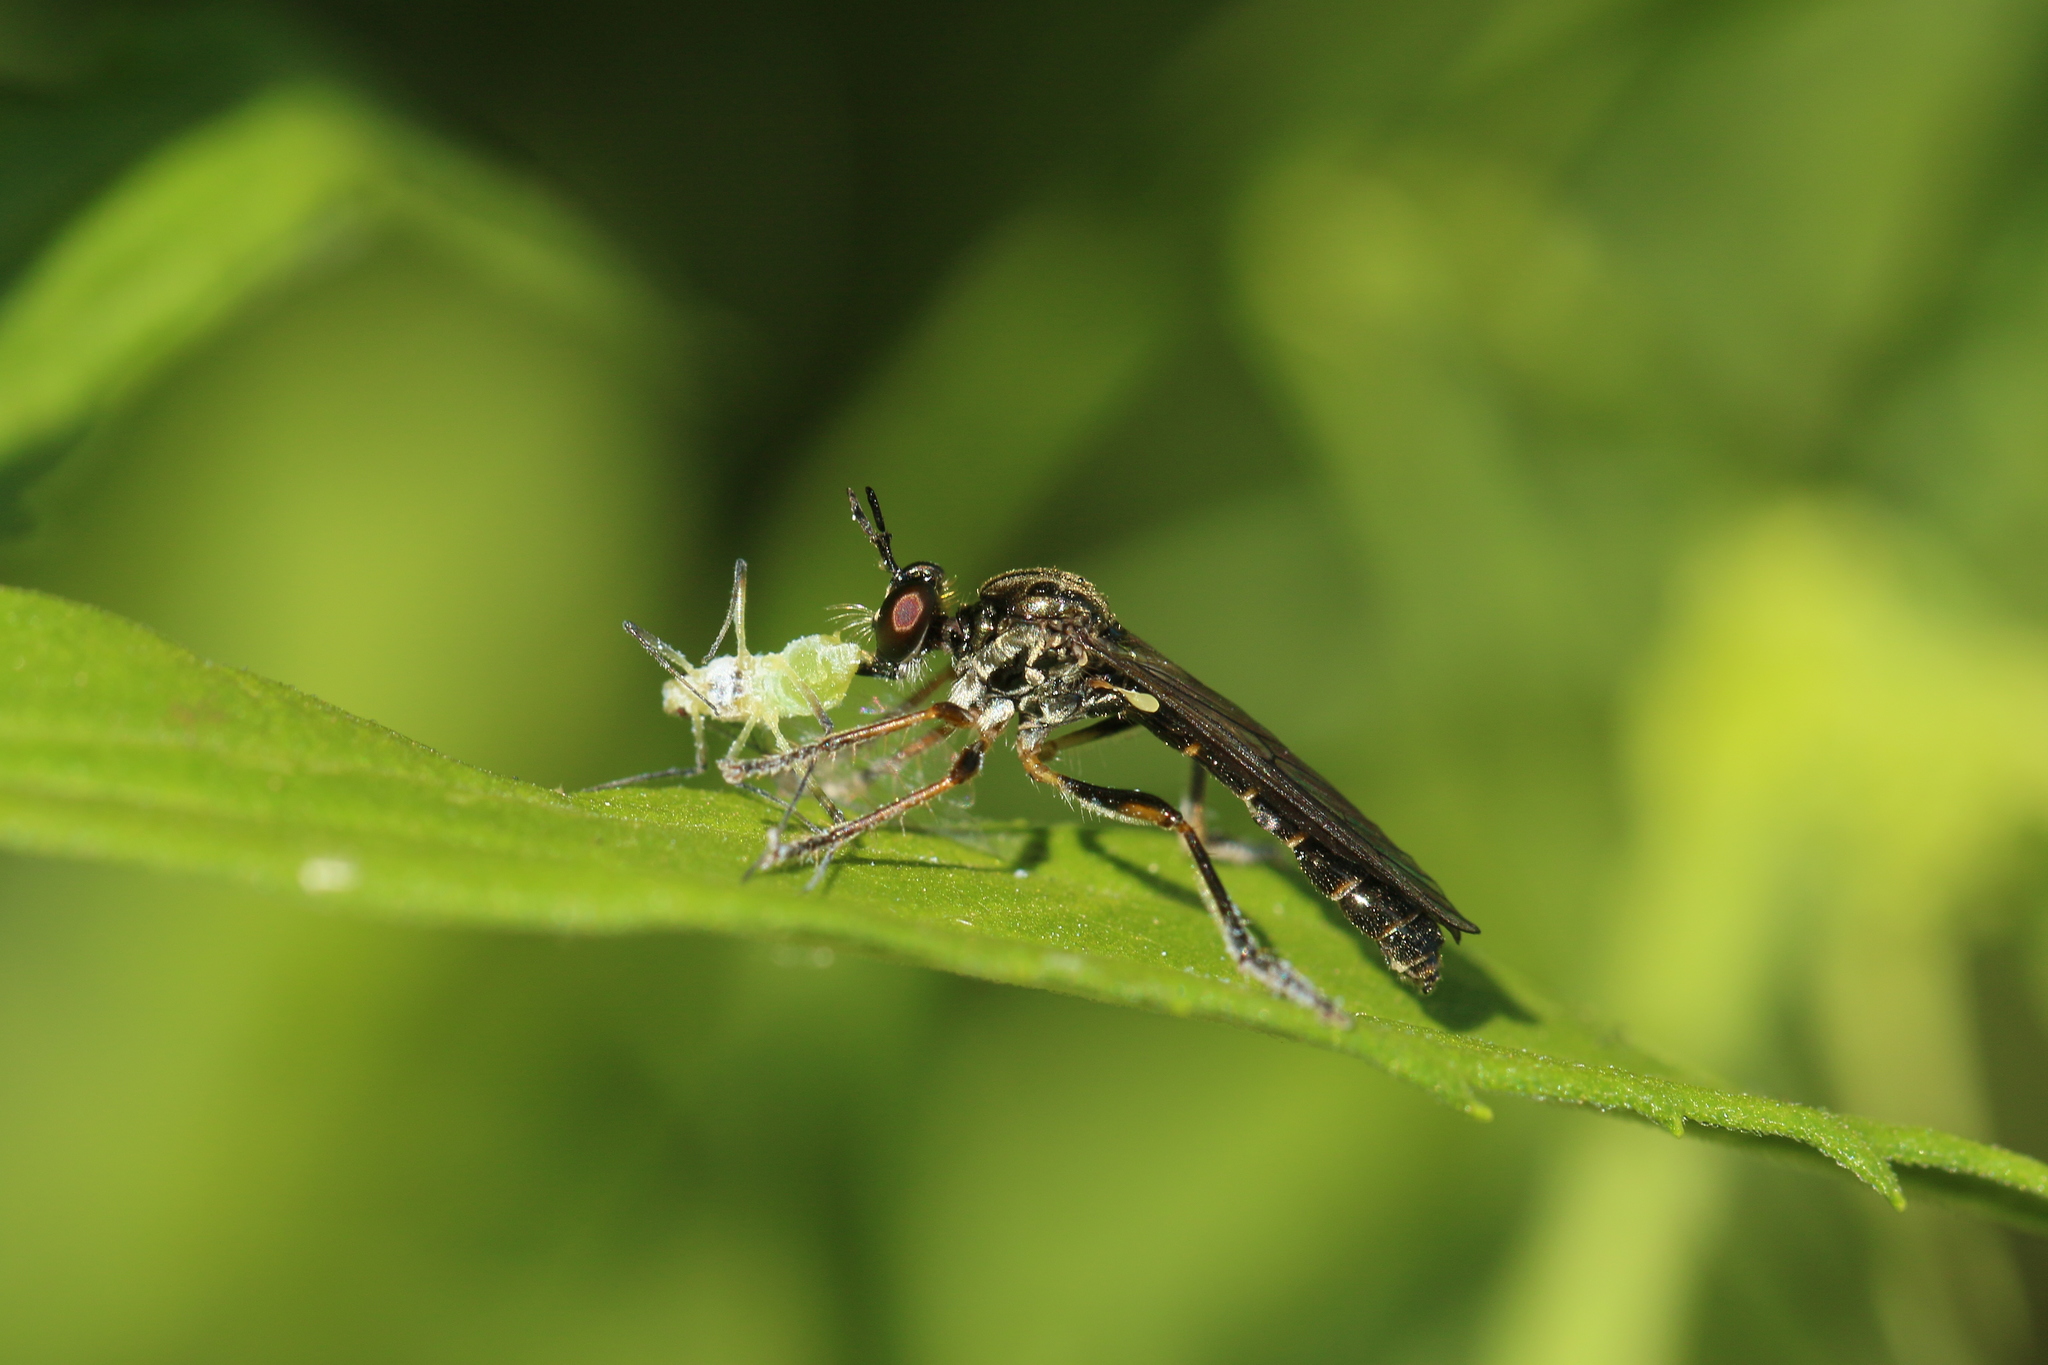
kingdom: Animalia
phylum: Arthropoda
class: Insecta
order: Diptera
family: Asilidae
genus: Dioctria
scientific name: Dioctria hyalipennis
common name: Stripe-legged robberfly
